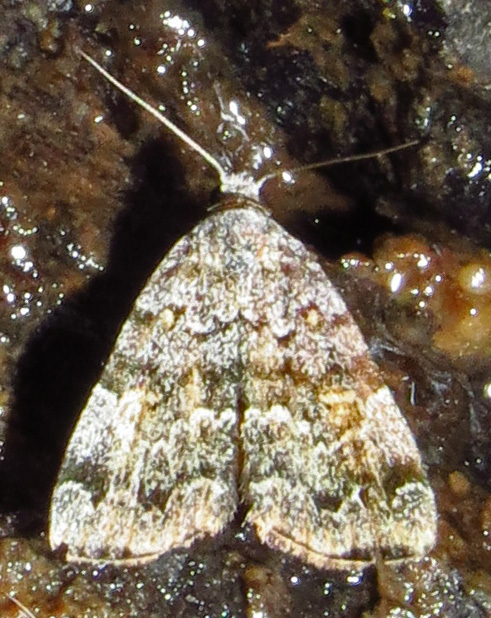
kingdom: Animalia
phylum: Arthropoda
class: Insecta
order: Lepidoptera
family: Erebidae
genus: Idia
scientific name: Idia americalis
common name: American idia moth
